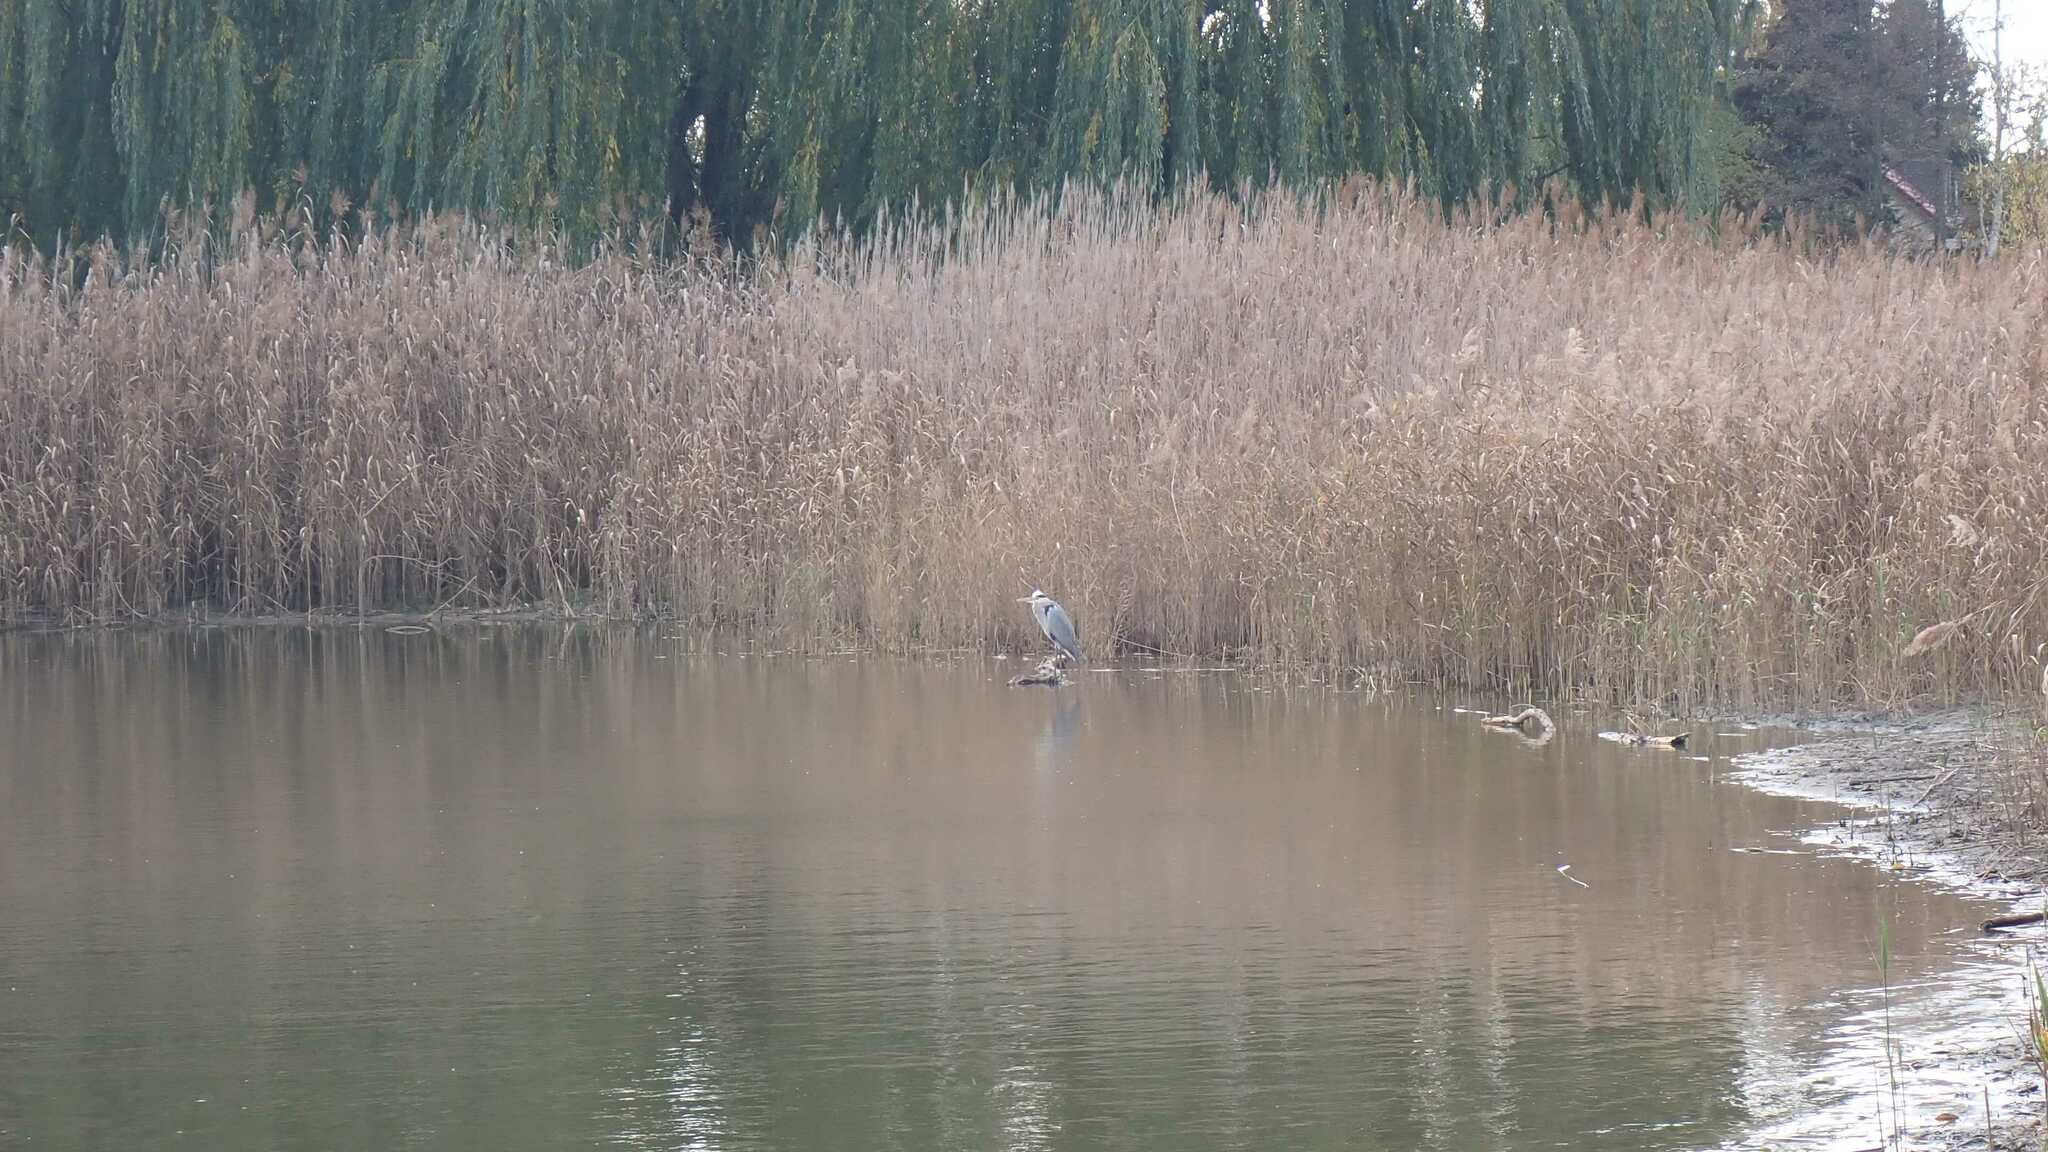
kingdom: Animalia
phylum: Chordata
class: Aves
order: Pelecaniformes
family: Ardeidae
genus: Ardea
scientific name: Ardea cinerea
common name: Grey heron
